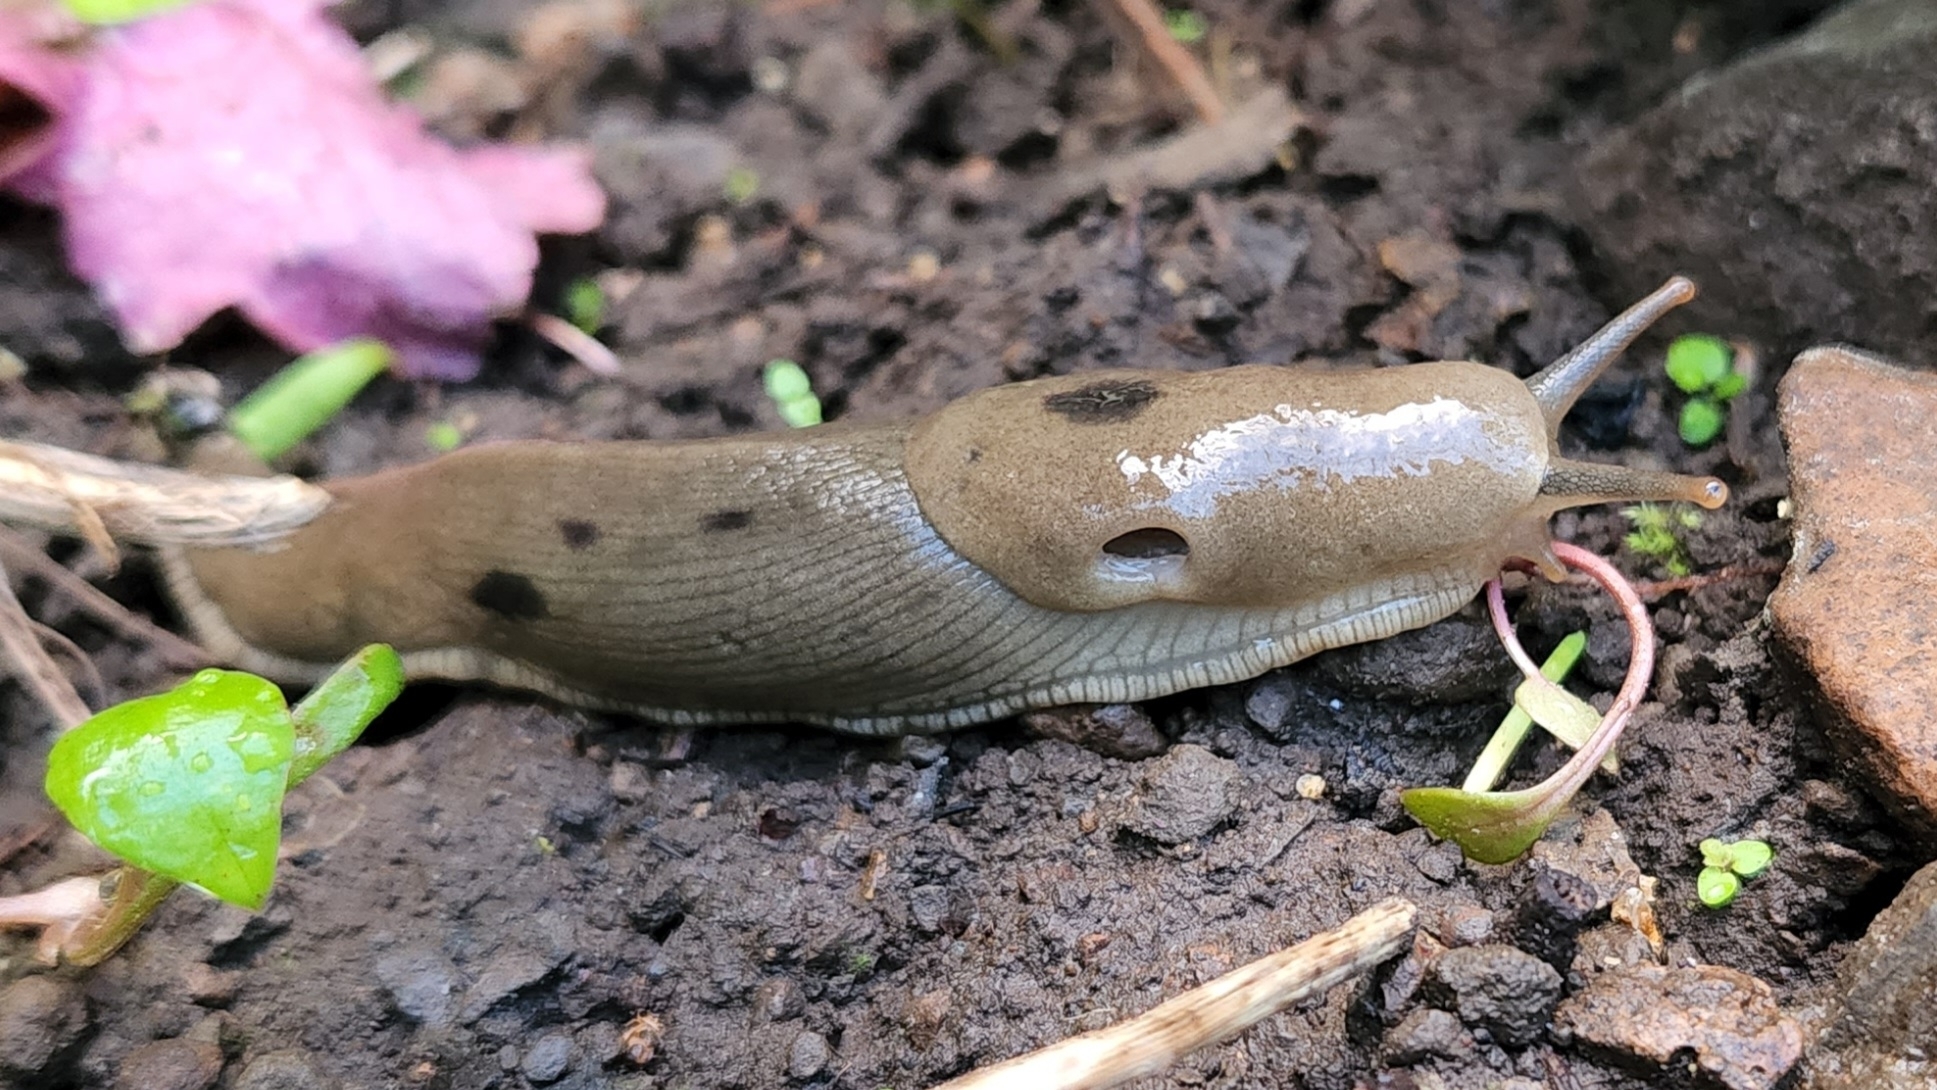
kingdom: Animalia
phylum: Mollusca
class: Gastropoda
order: Stylommatophora
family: Ariolimacidae
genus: Ariolimax
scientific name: Ariolimax columbianus
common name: Pacific banana slug
